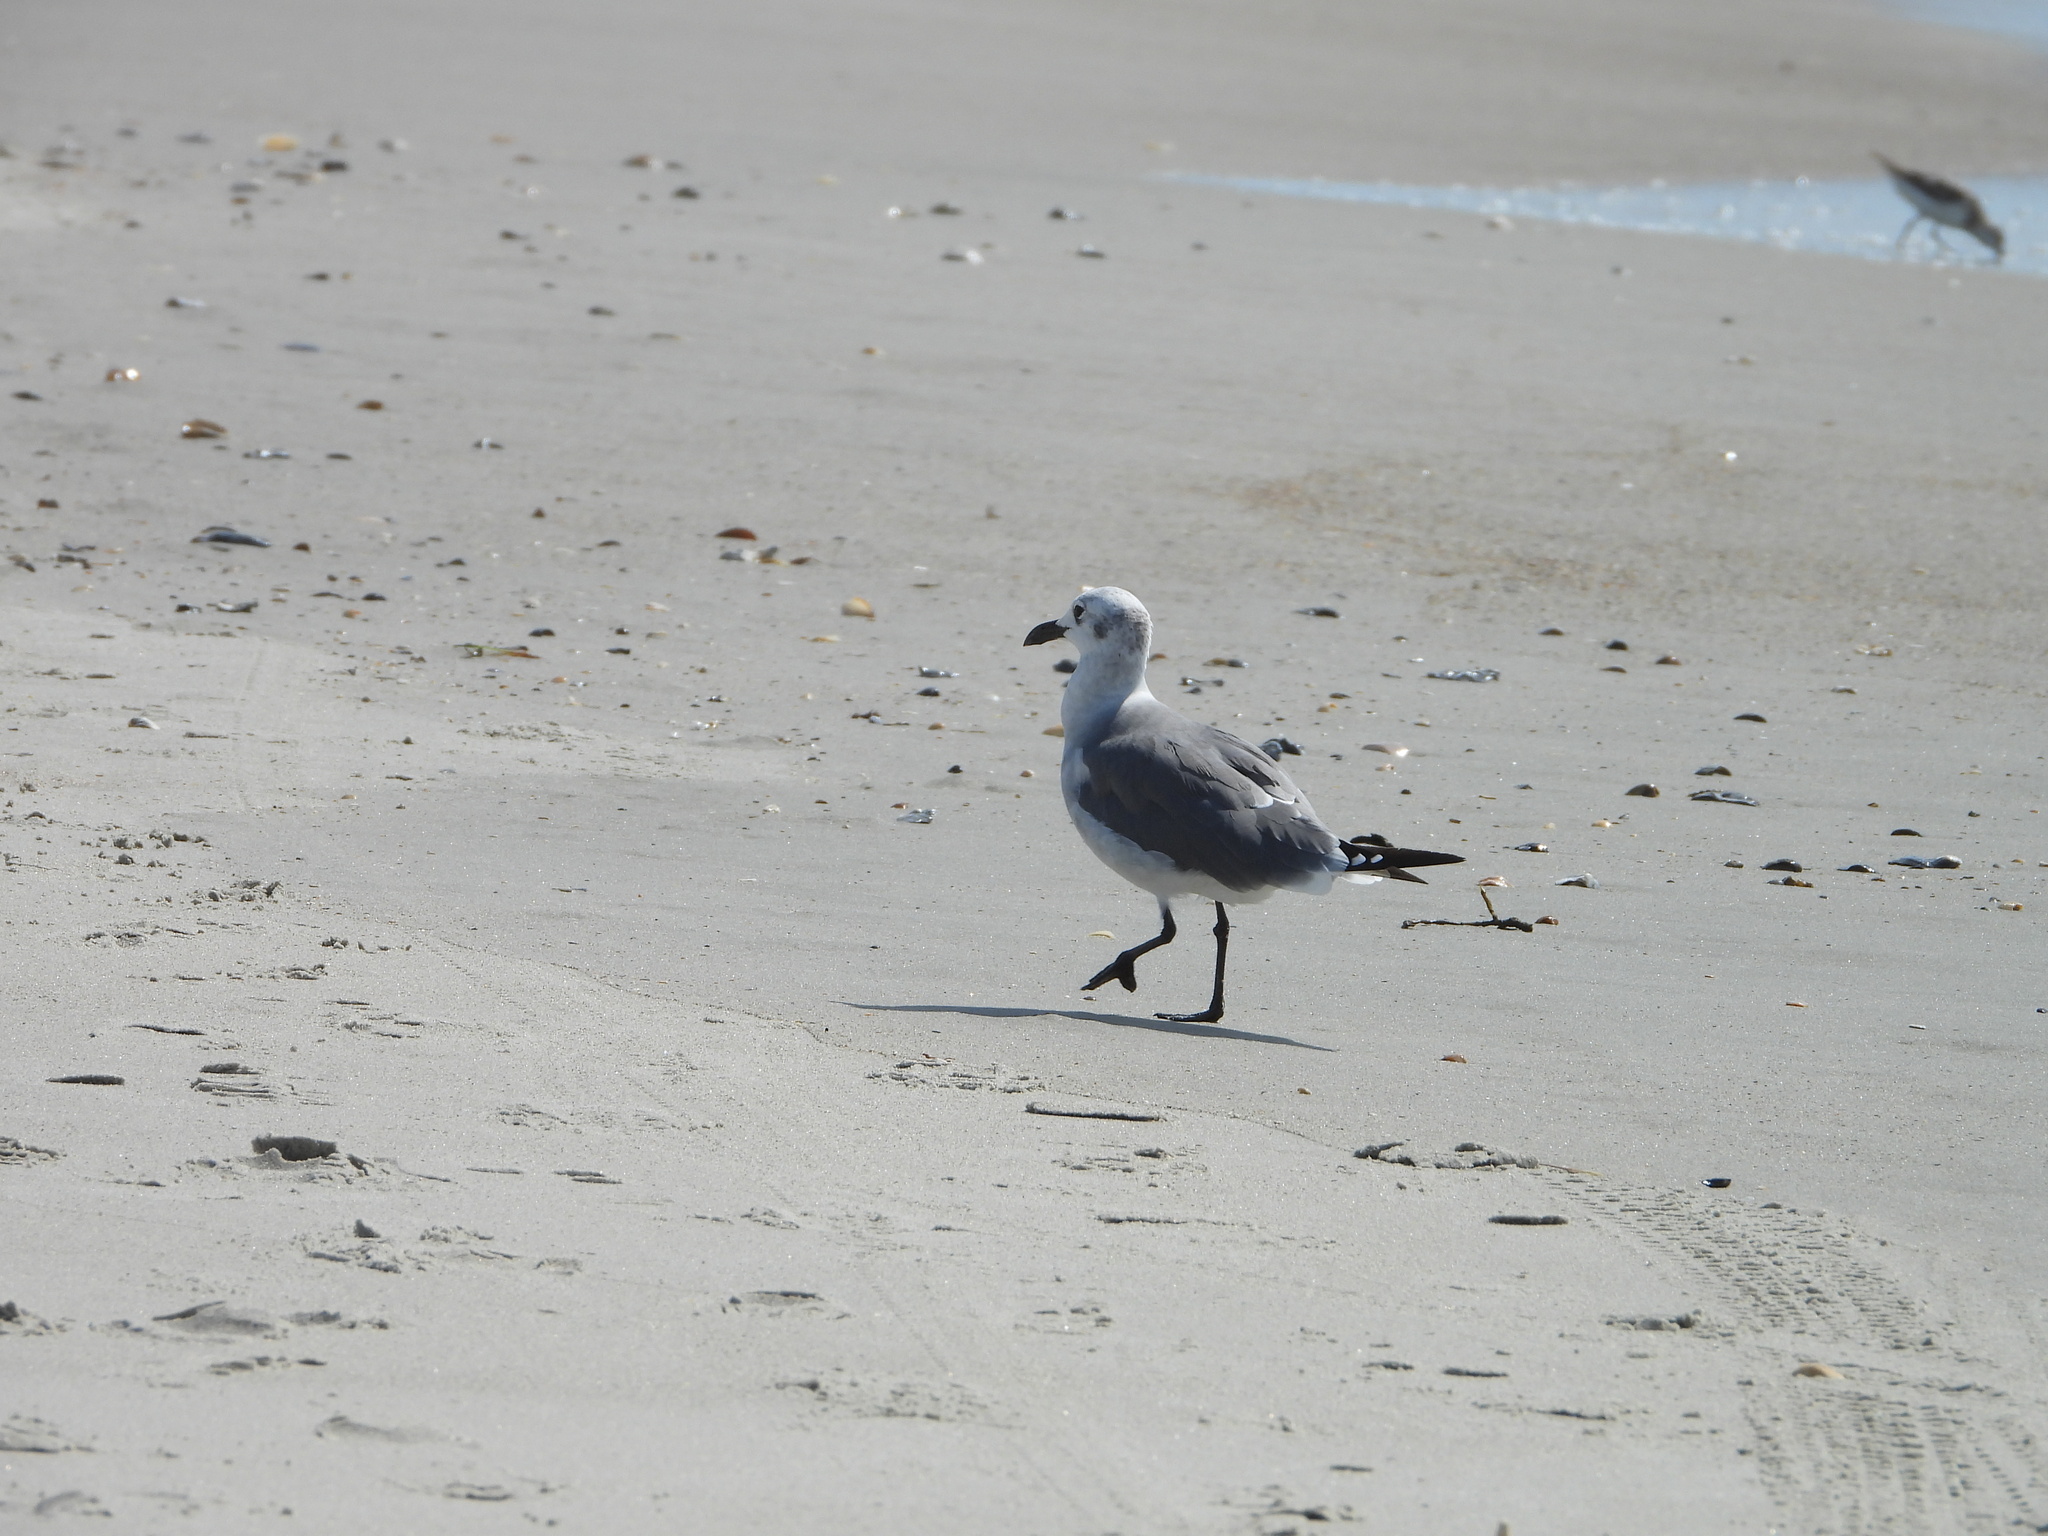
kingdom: Animalia
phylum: Chordata
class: Aves
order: Charadriiformes
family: Laridae
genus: Leucophaeus
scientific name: Leucophaeus atricilla
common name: Laughing gull
